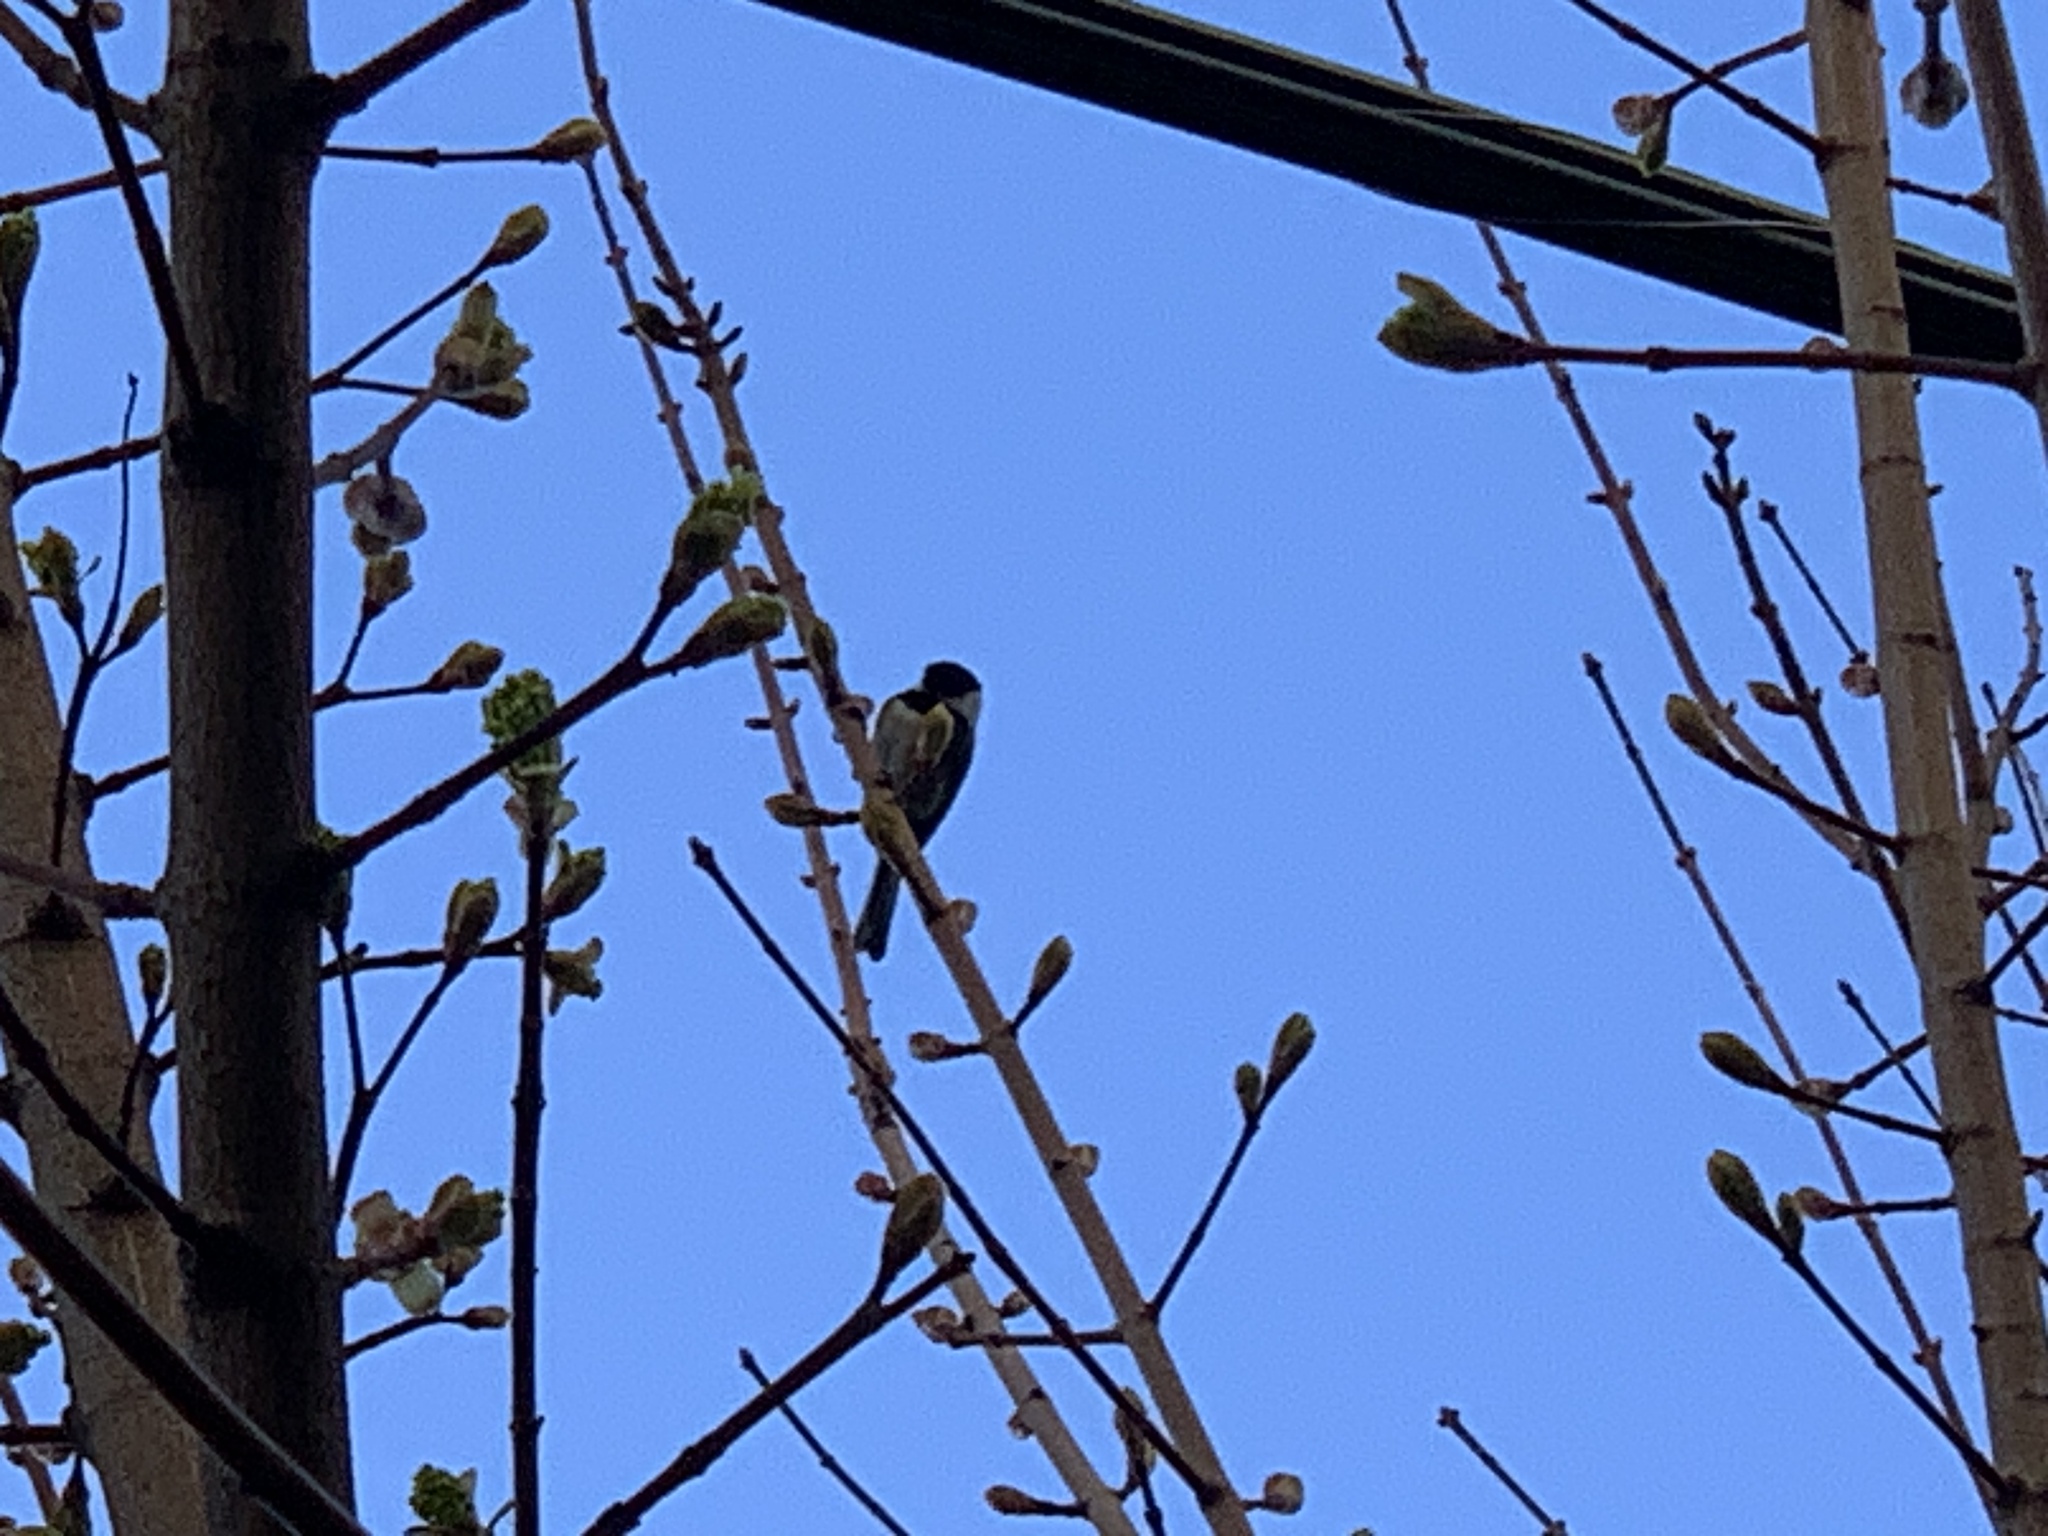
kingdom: Animalia
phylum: Chordata
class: Aves
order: Passeriformes
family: Paridae
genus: Poecile
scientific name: Poecile atricapillus
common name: Black-capped chickadee
